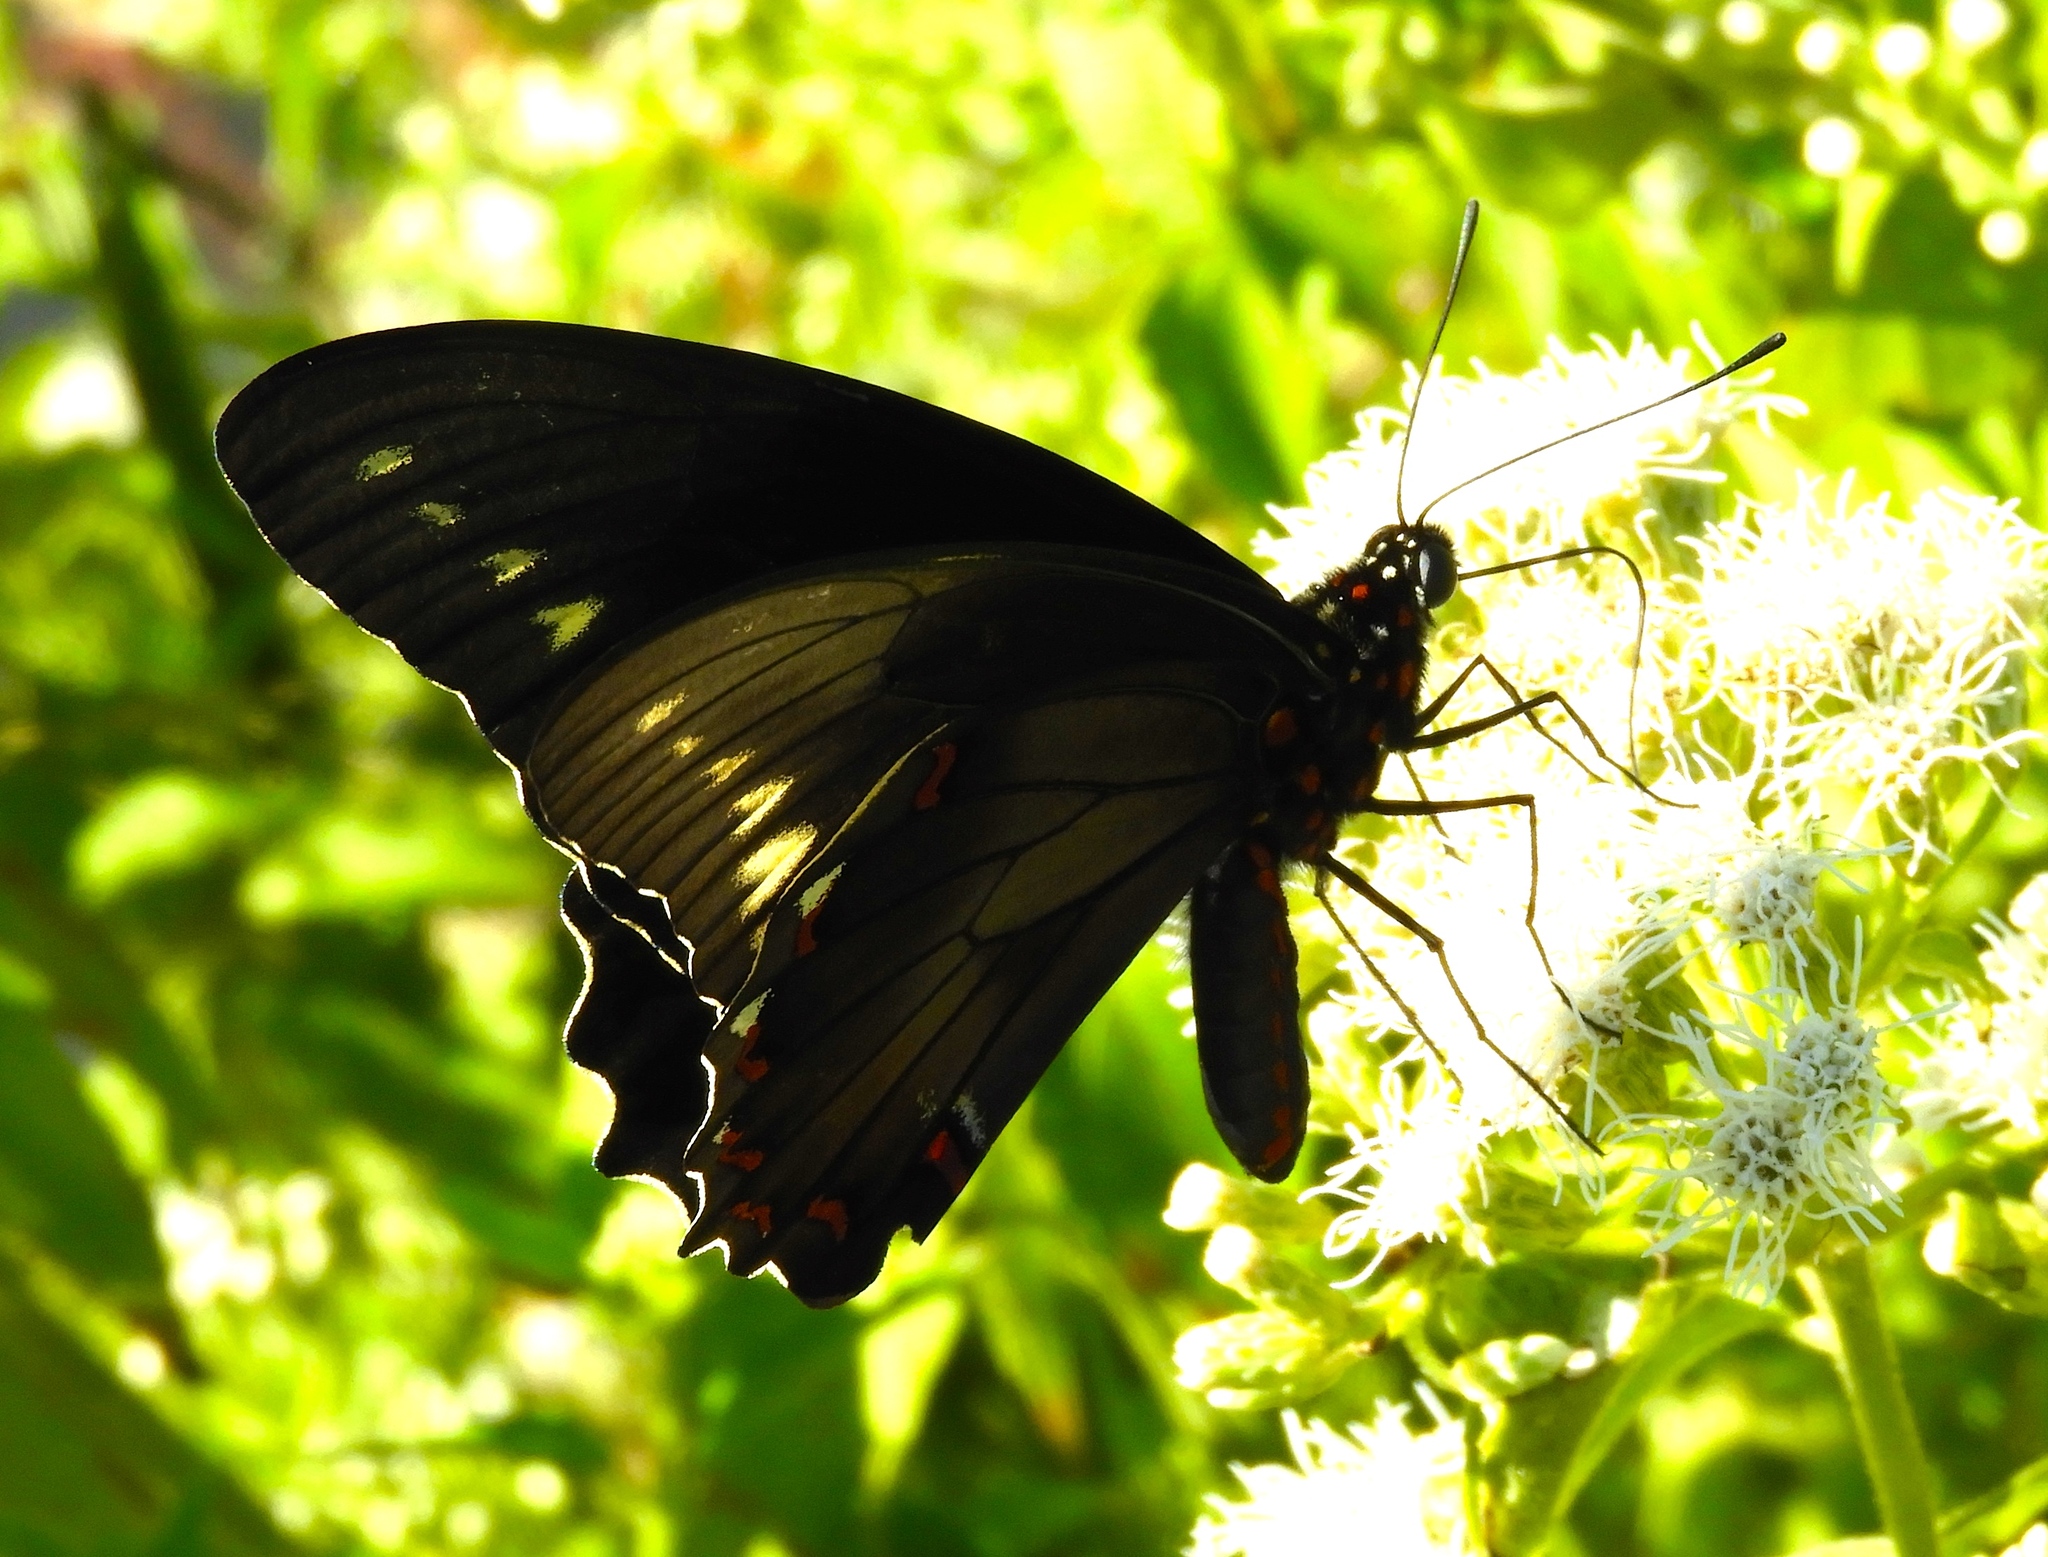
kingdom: Animalia
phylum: Arthropoda
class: Insecta
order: Lepidoptera
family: Papilionidae
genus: Battus
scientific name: Battus polydamas
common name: Polydamas swallowtail
